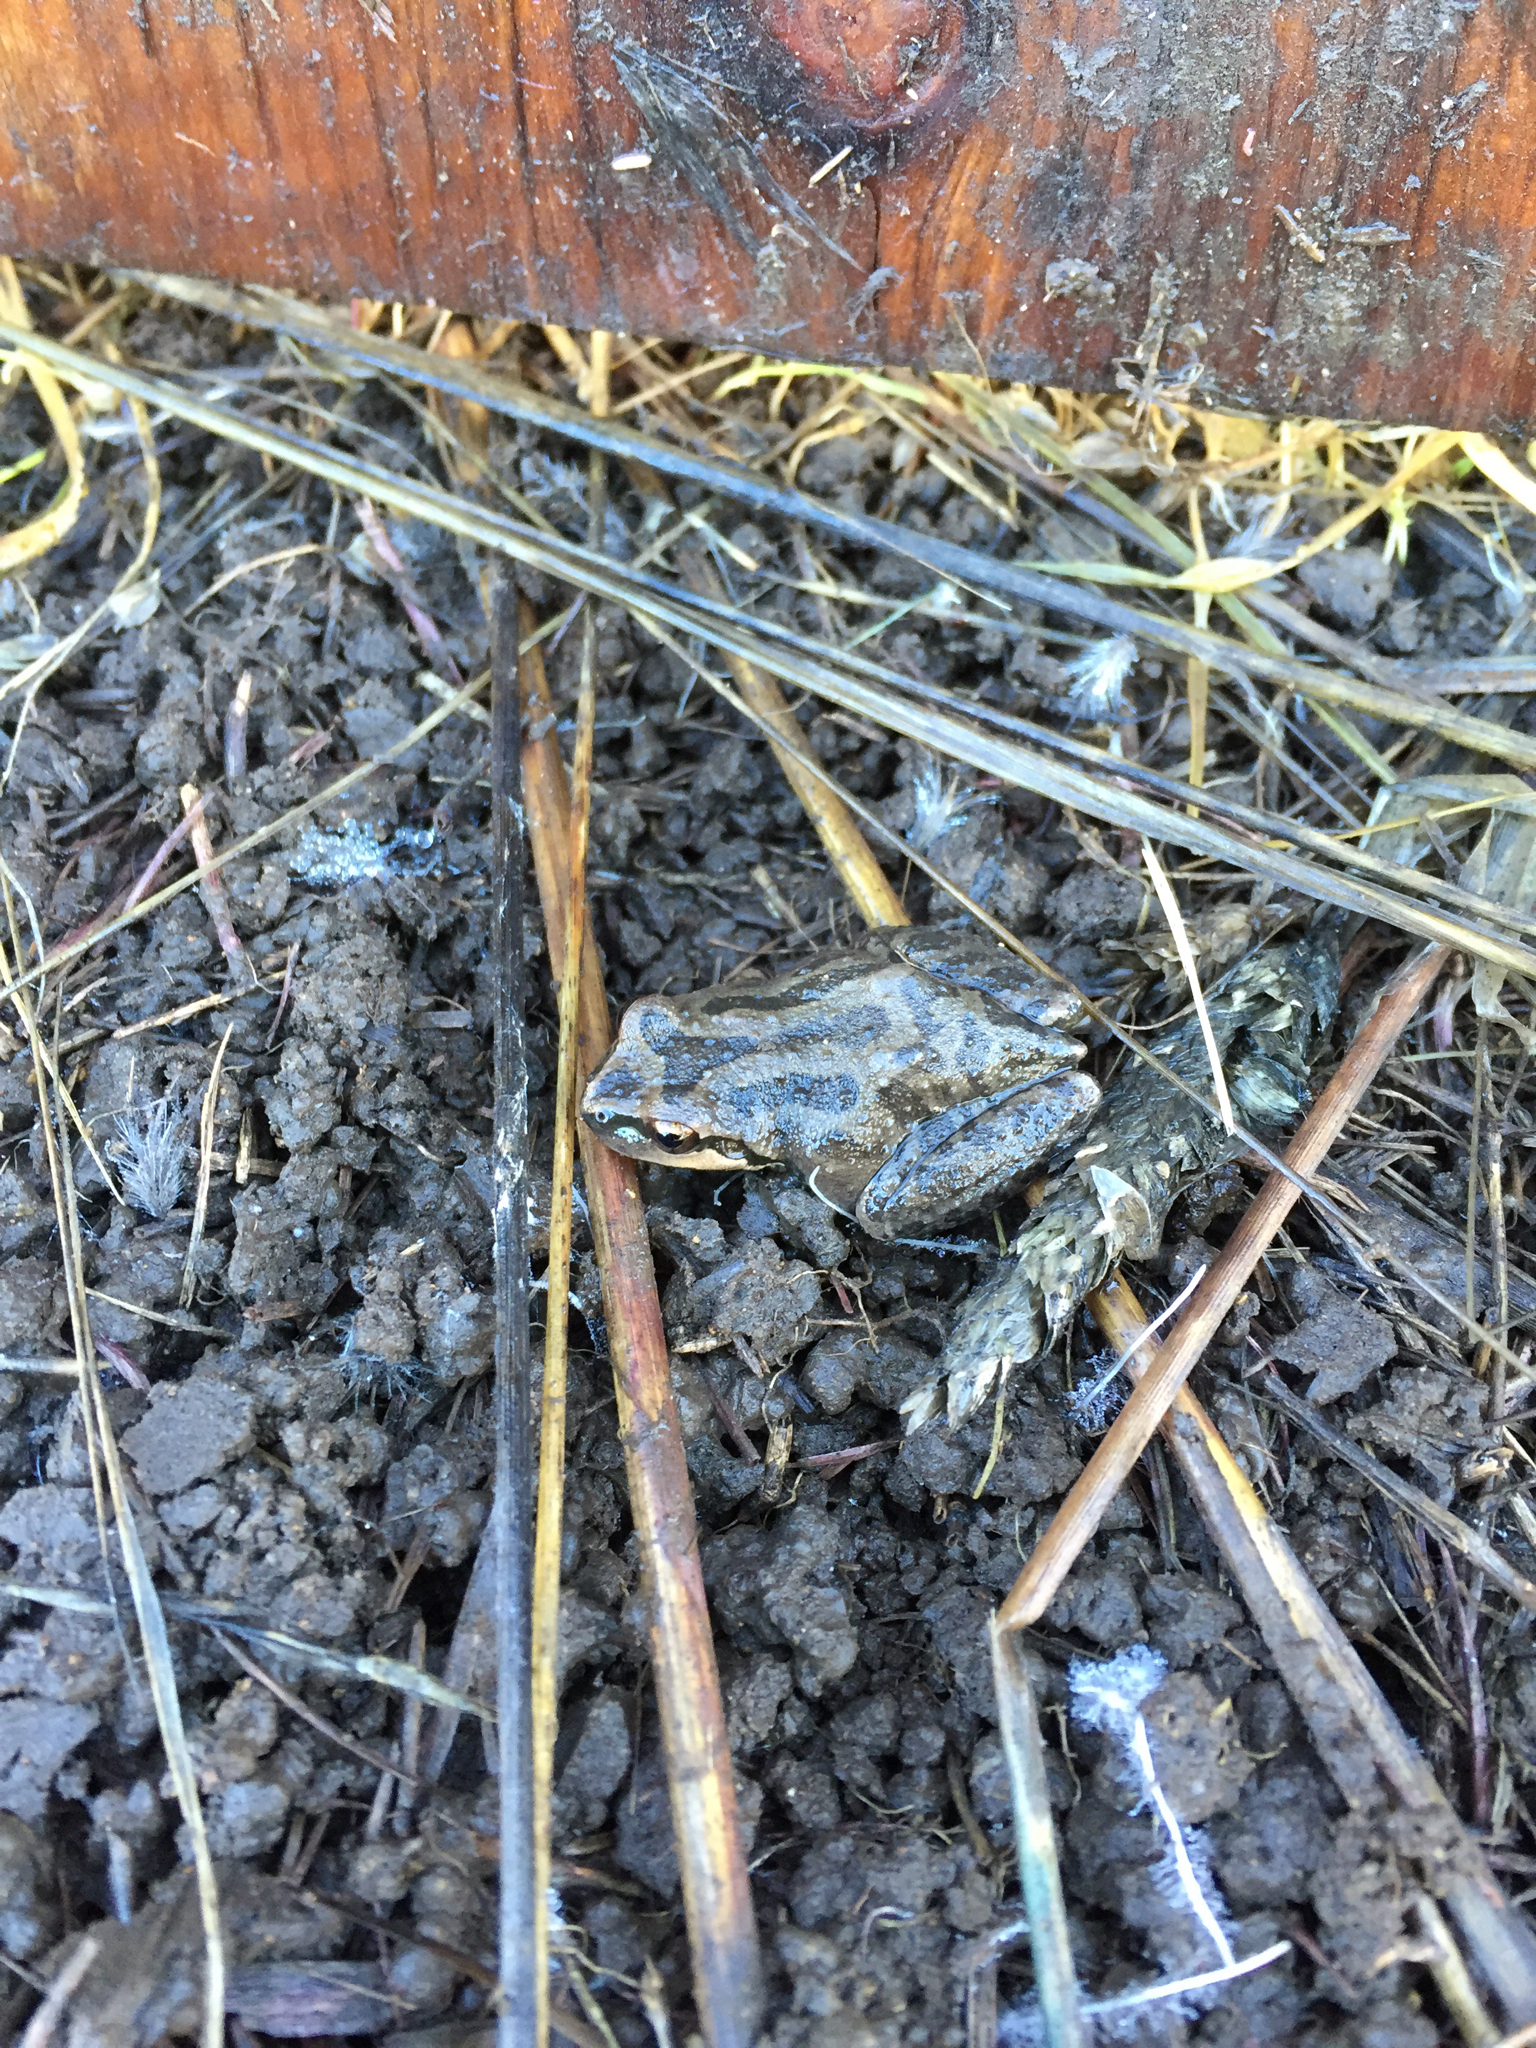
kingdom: Animalia
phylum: Chordata
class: Amphibia
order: Anura
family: Hylidae
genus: Pseudacris
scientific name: Pseudacris regilla
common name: Pacific chorus frog
